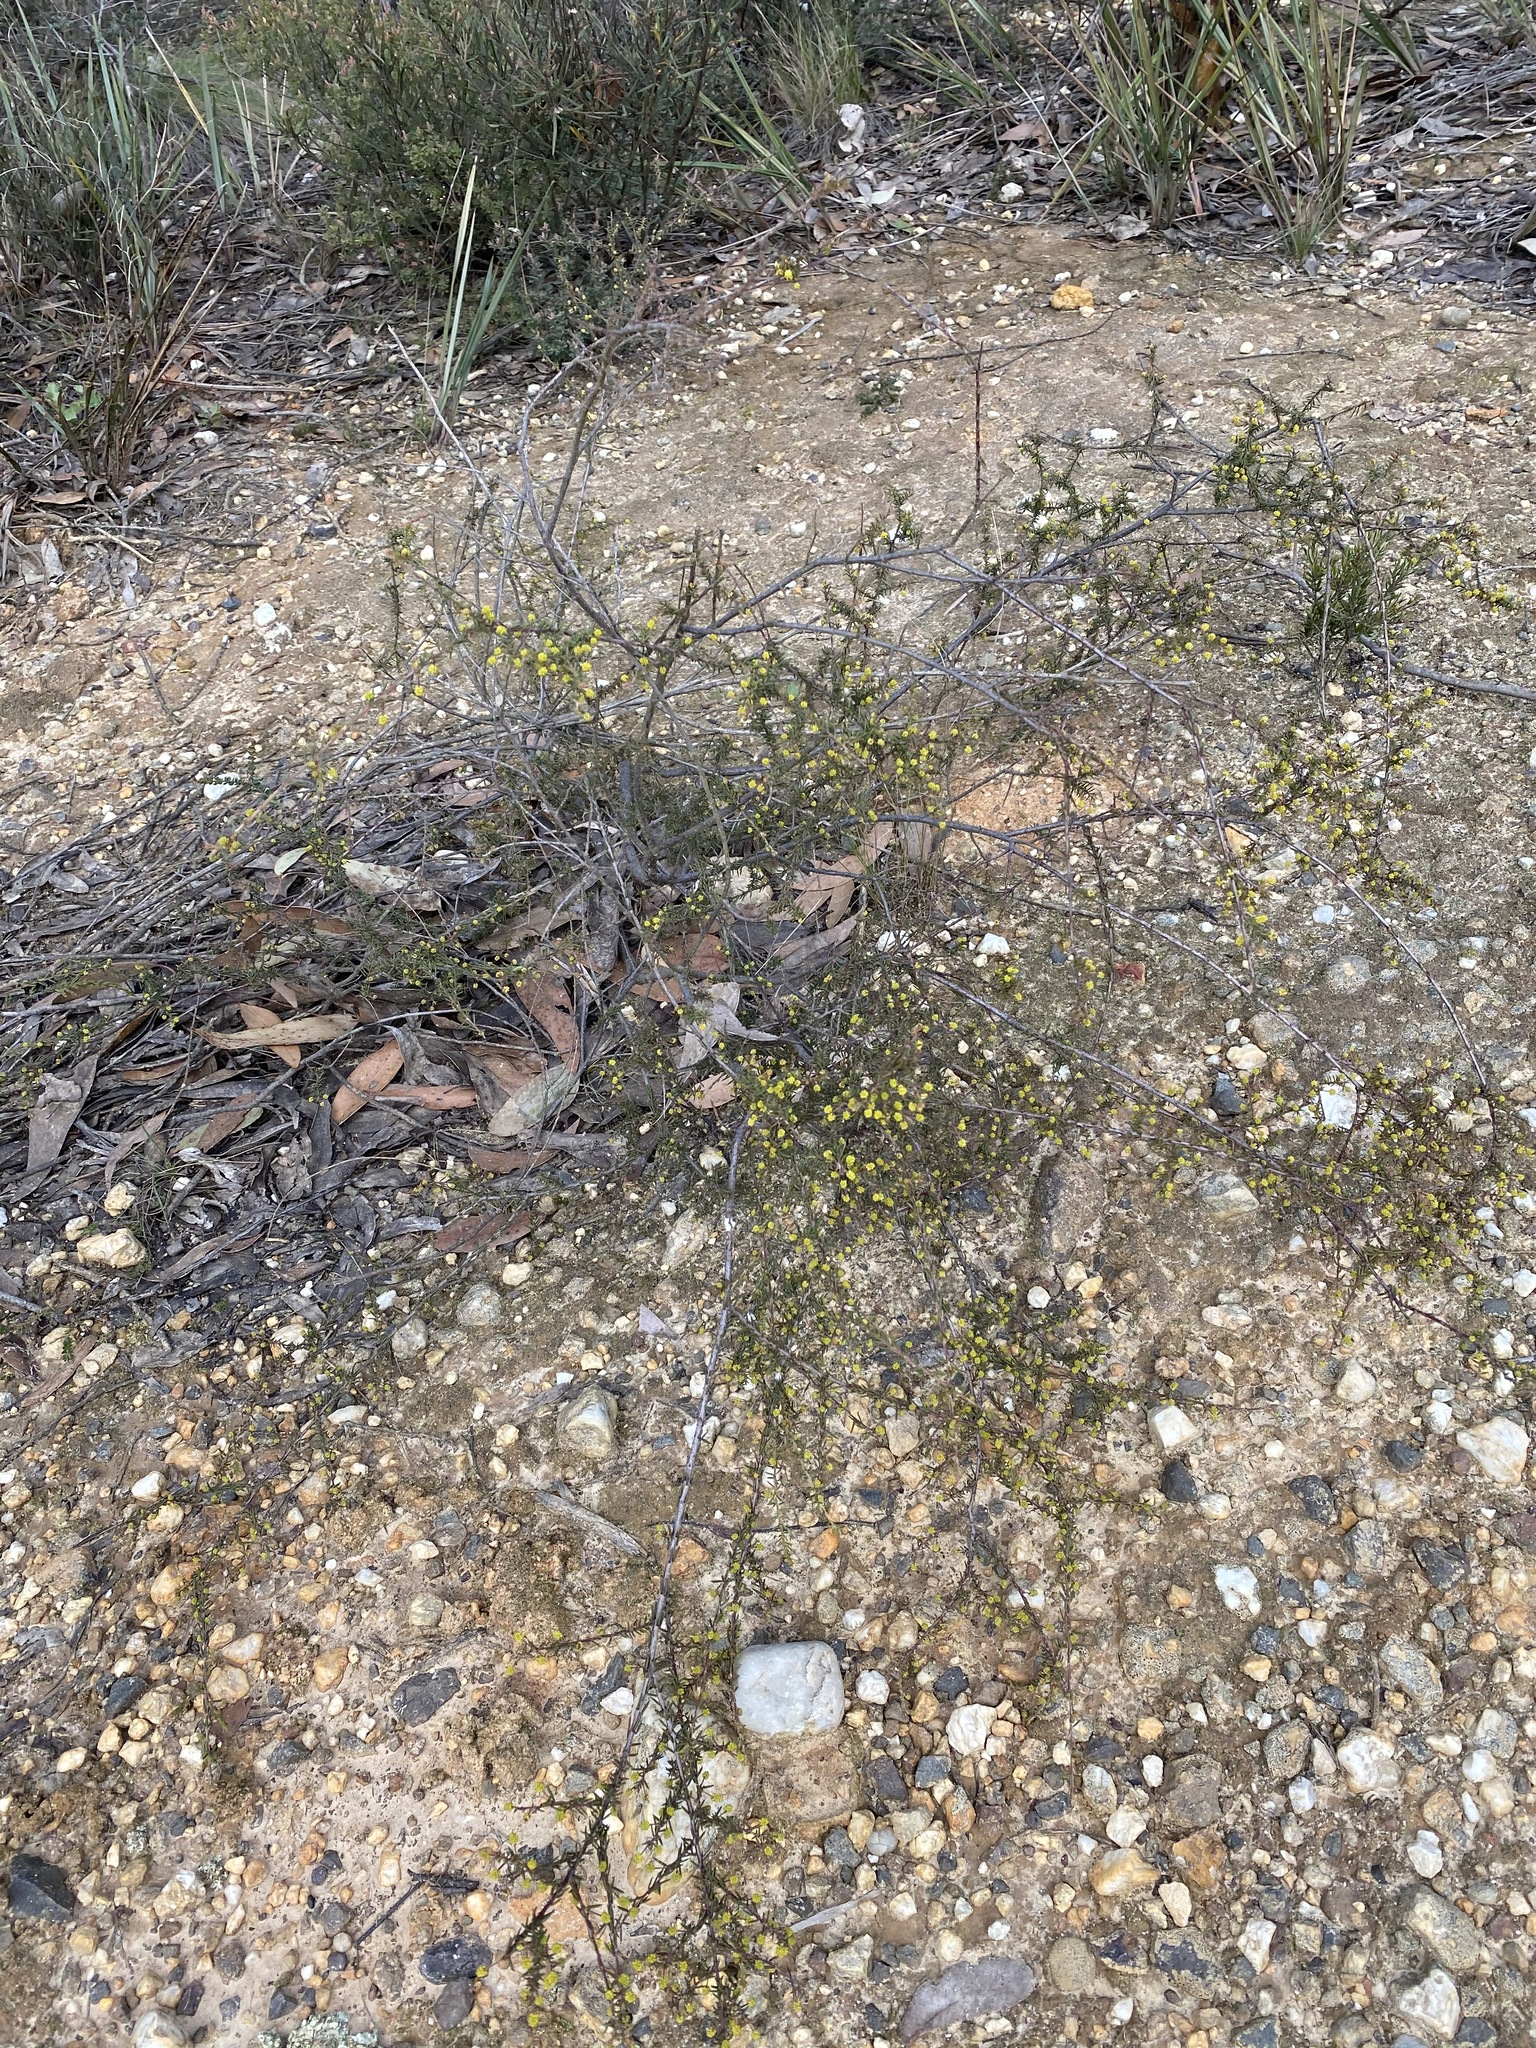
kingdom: Plantae
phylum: Tracheophyta
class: Magnoliopsida
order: Fabales
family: Fabaceae
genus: Acacia
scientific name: Acacia aculeatissima
